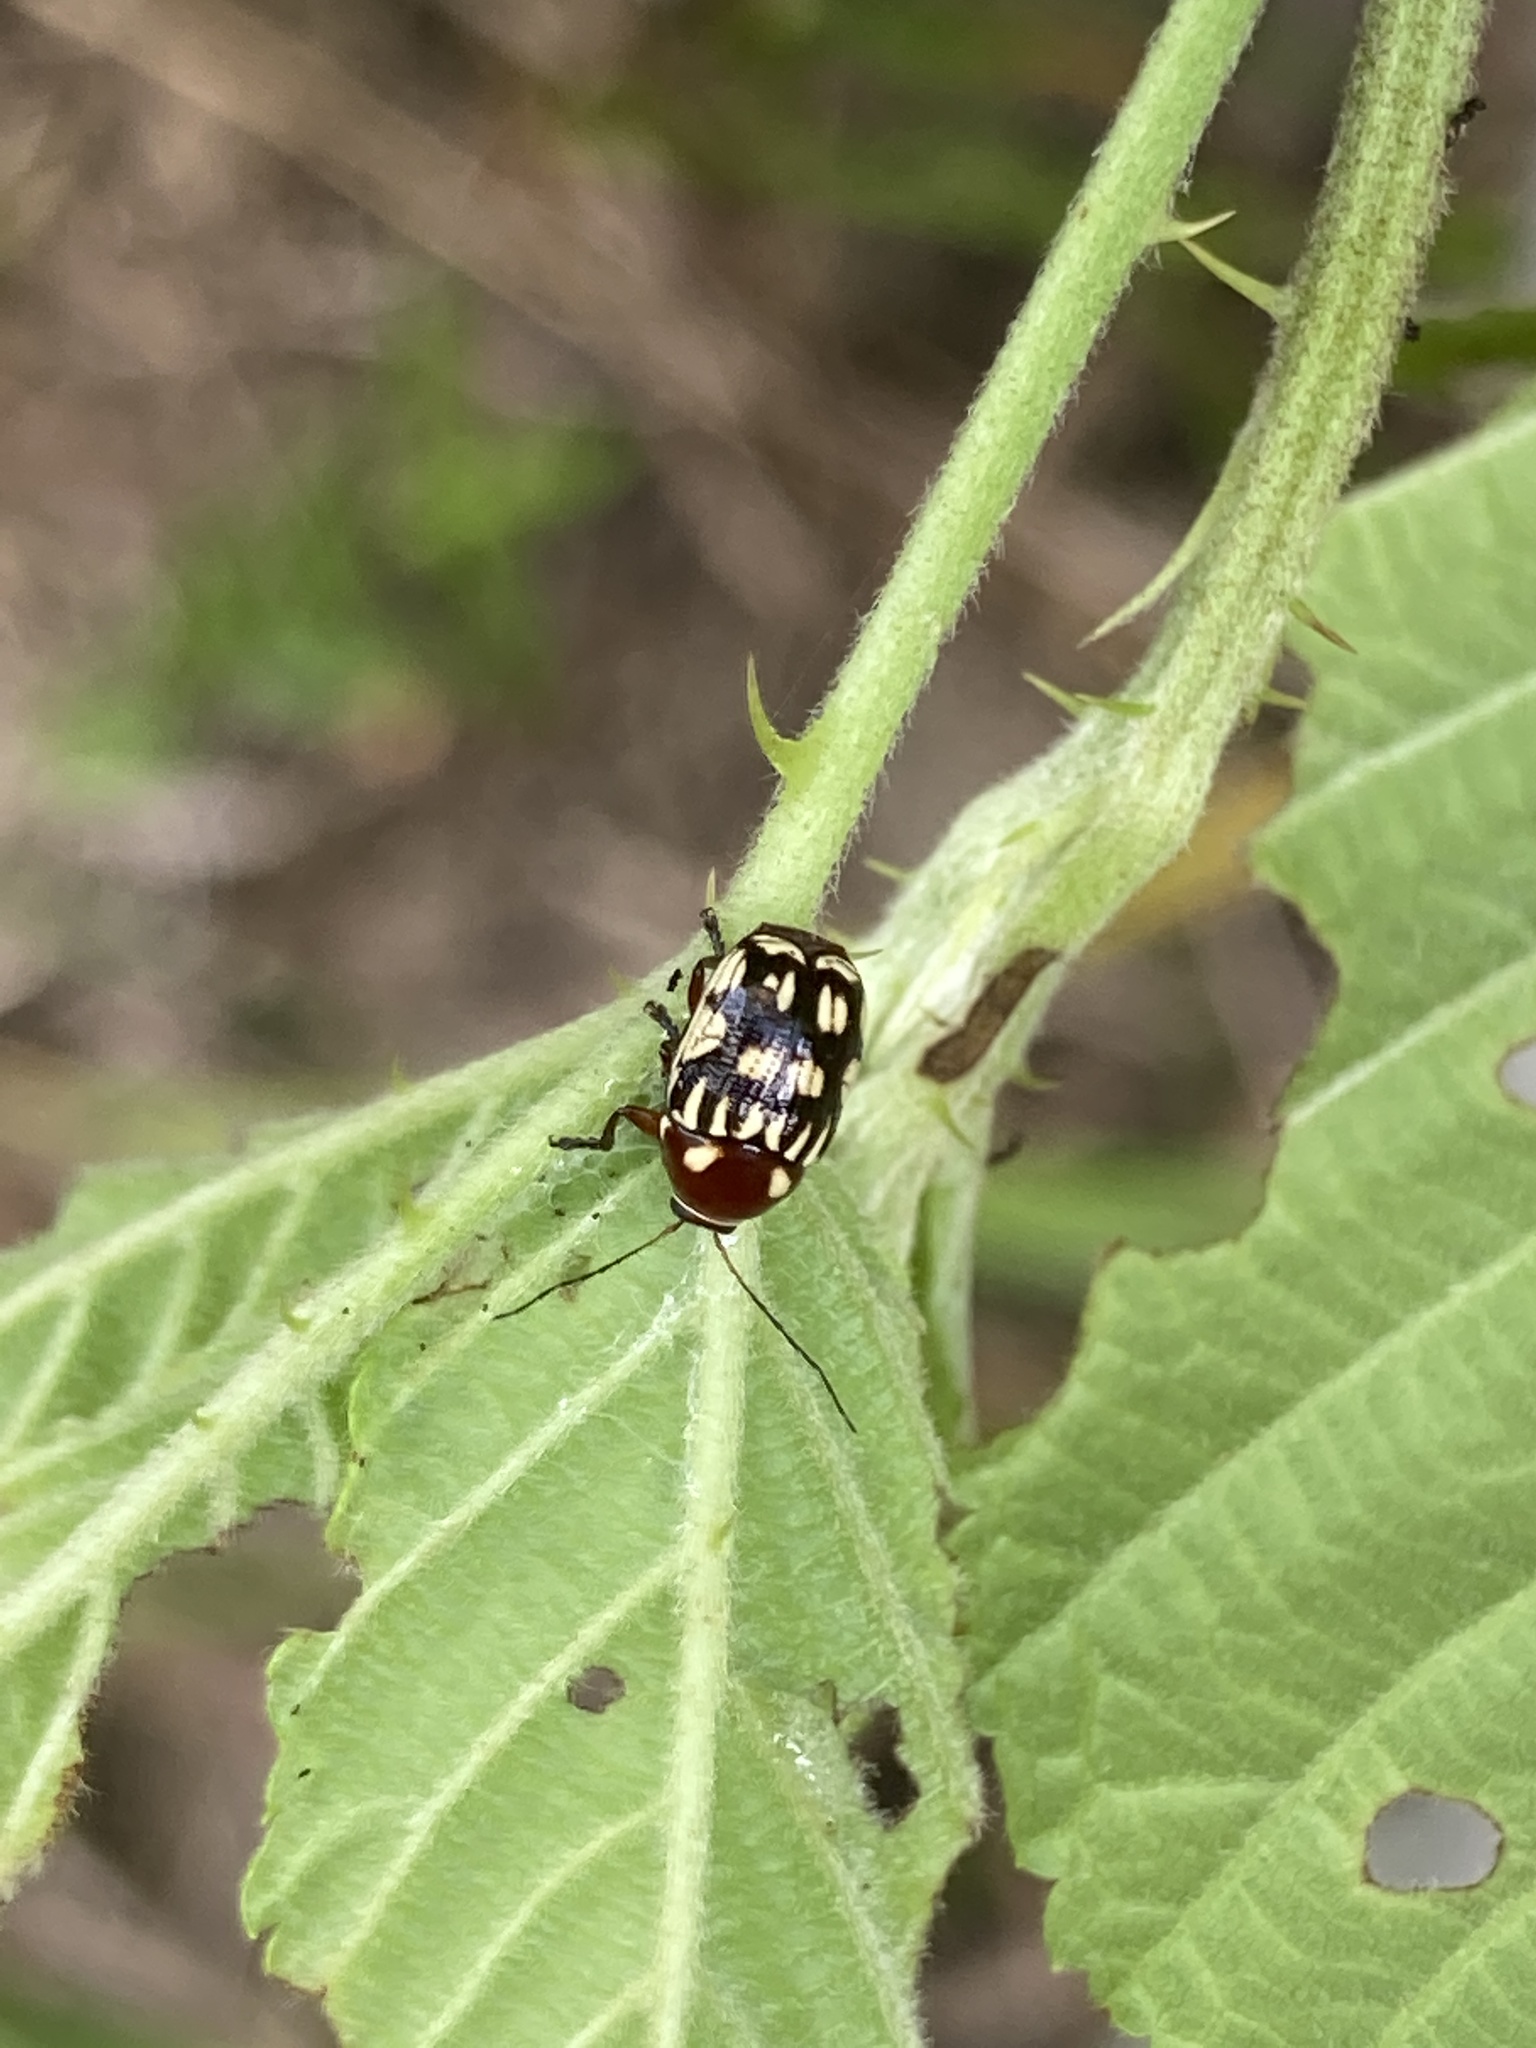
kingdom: Animalia
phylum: Arthropoda
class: Insecta
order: Coleoptera
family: Chrysomelidae
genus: Bassareus
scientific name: Bassareus clathratus
